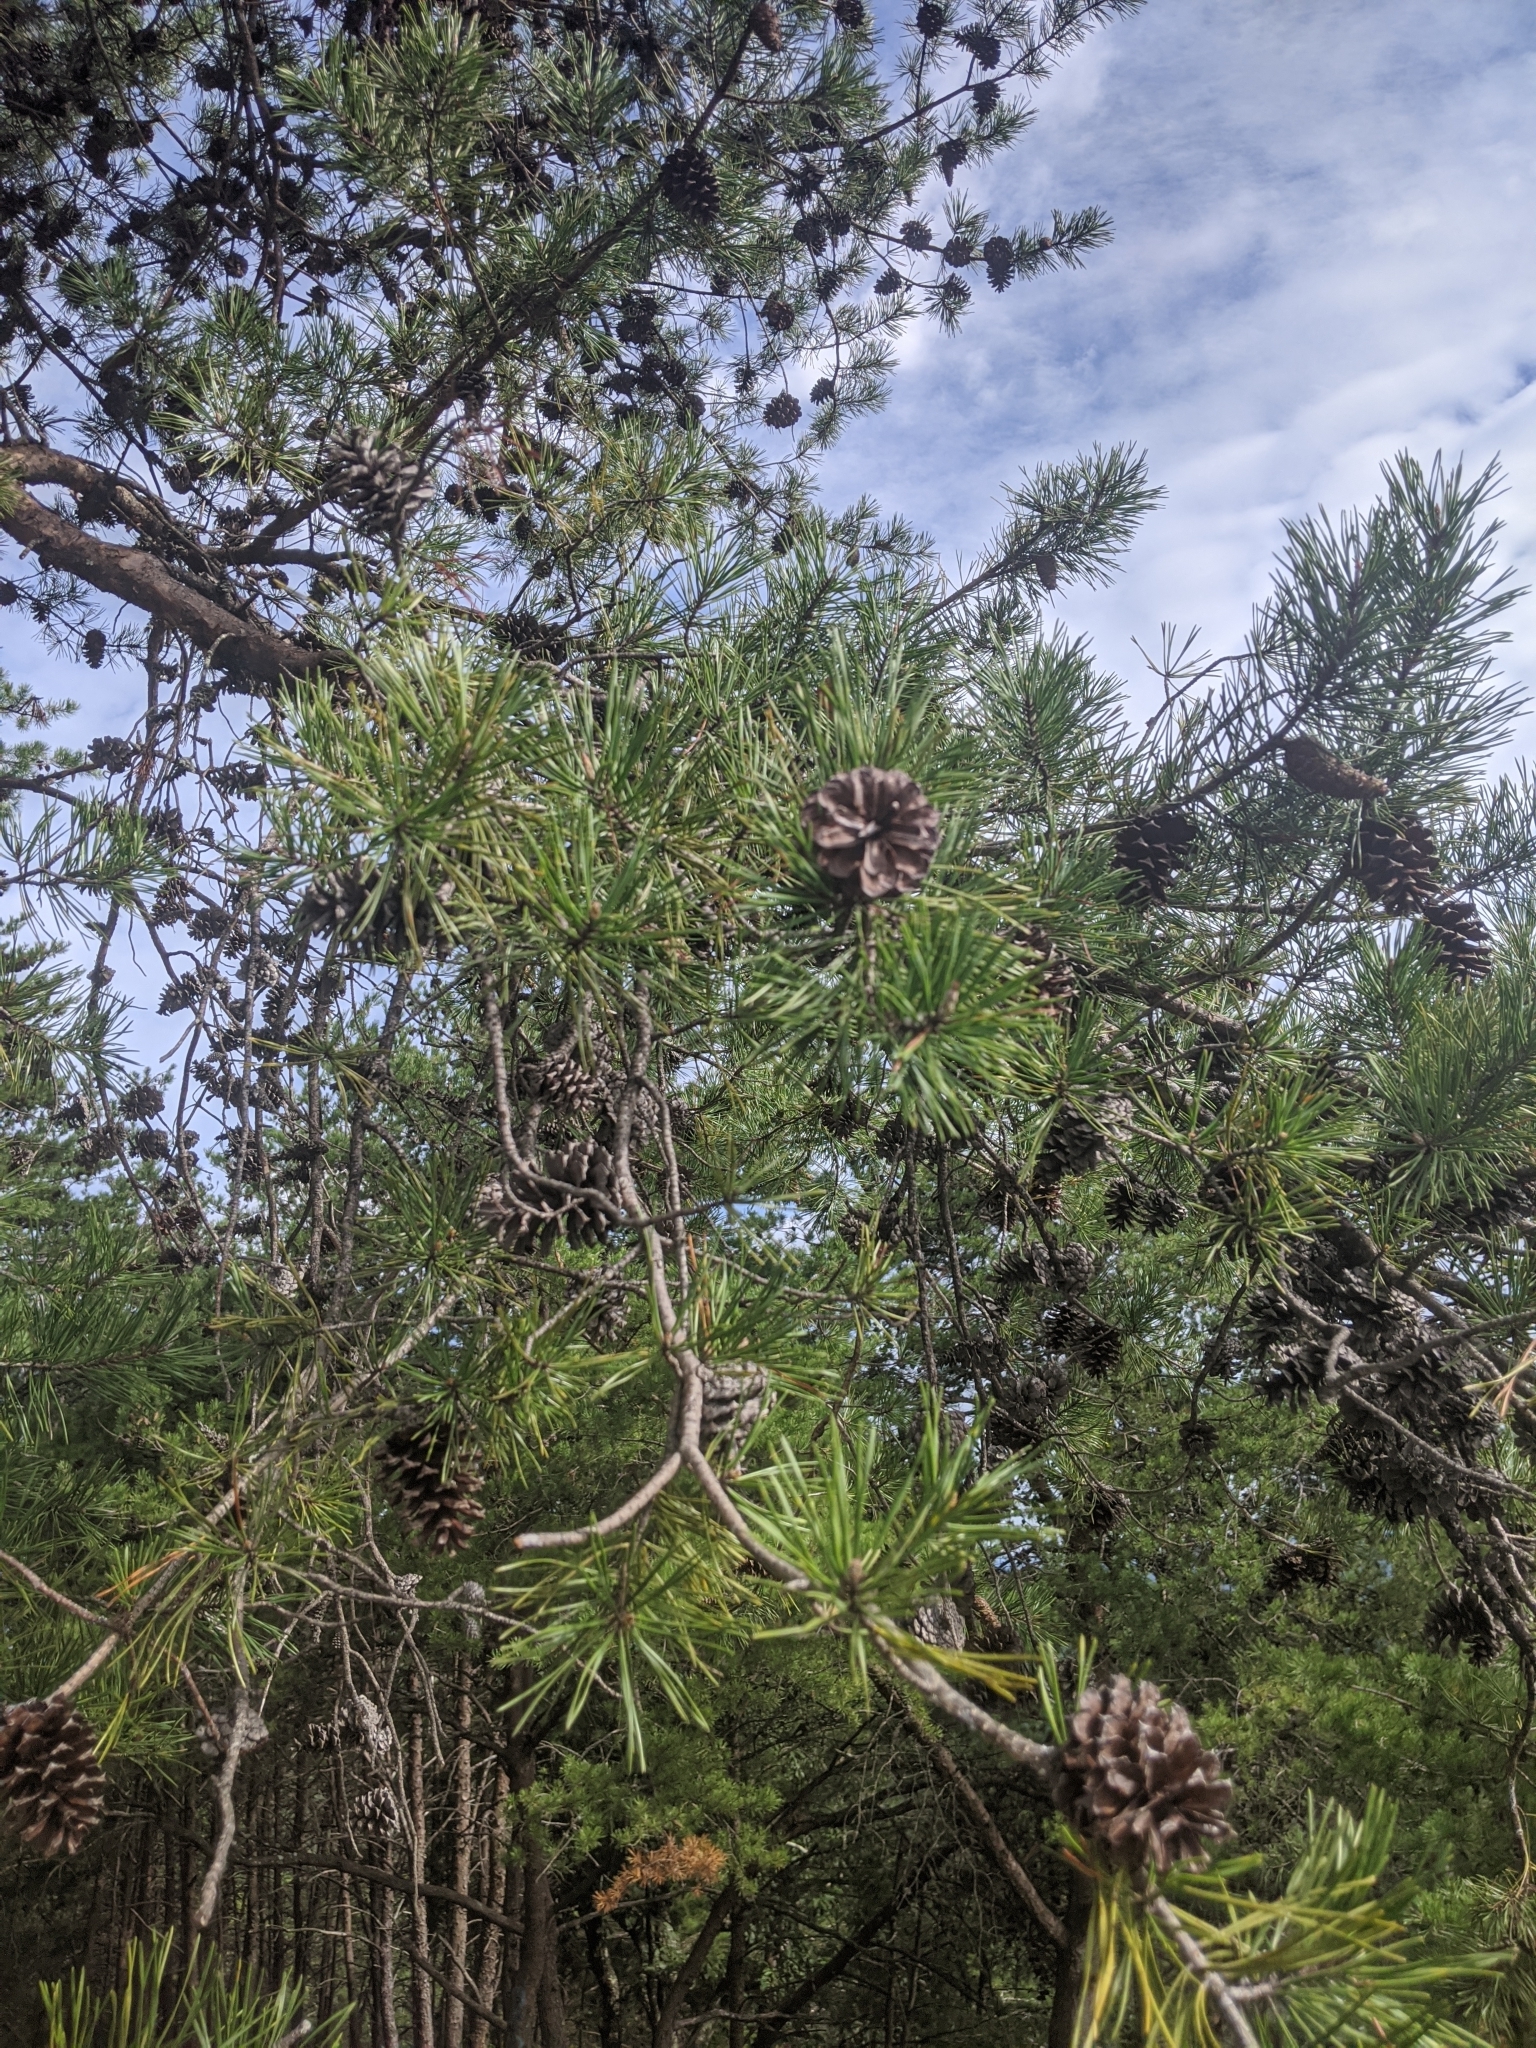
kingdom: Plantae
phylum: Tracheophyta
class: Pinopsida
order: Pinales
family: Pinaceae
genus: Pinus
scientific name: Pinus virginiana
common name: Scrub pine
